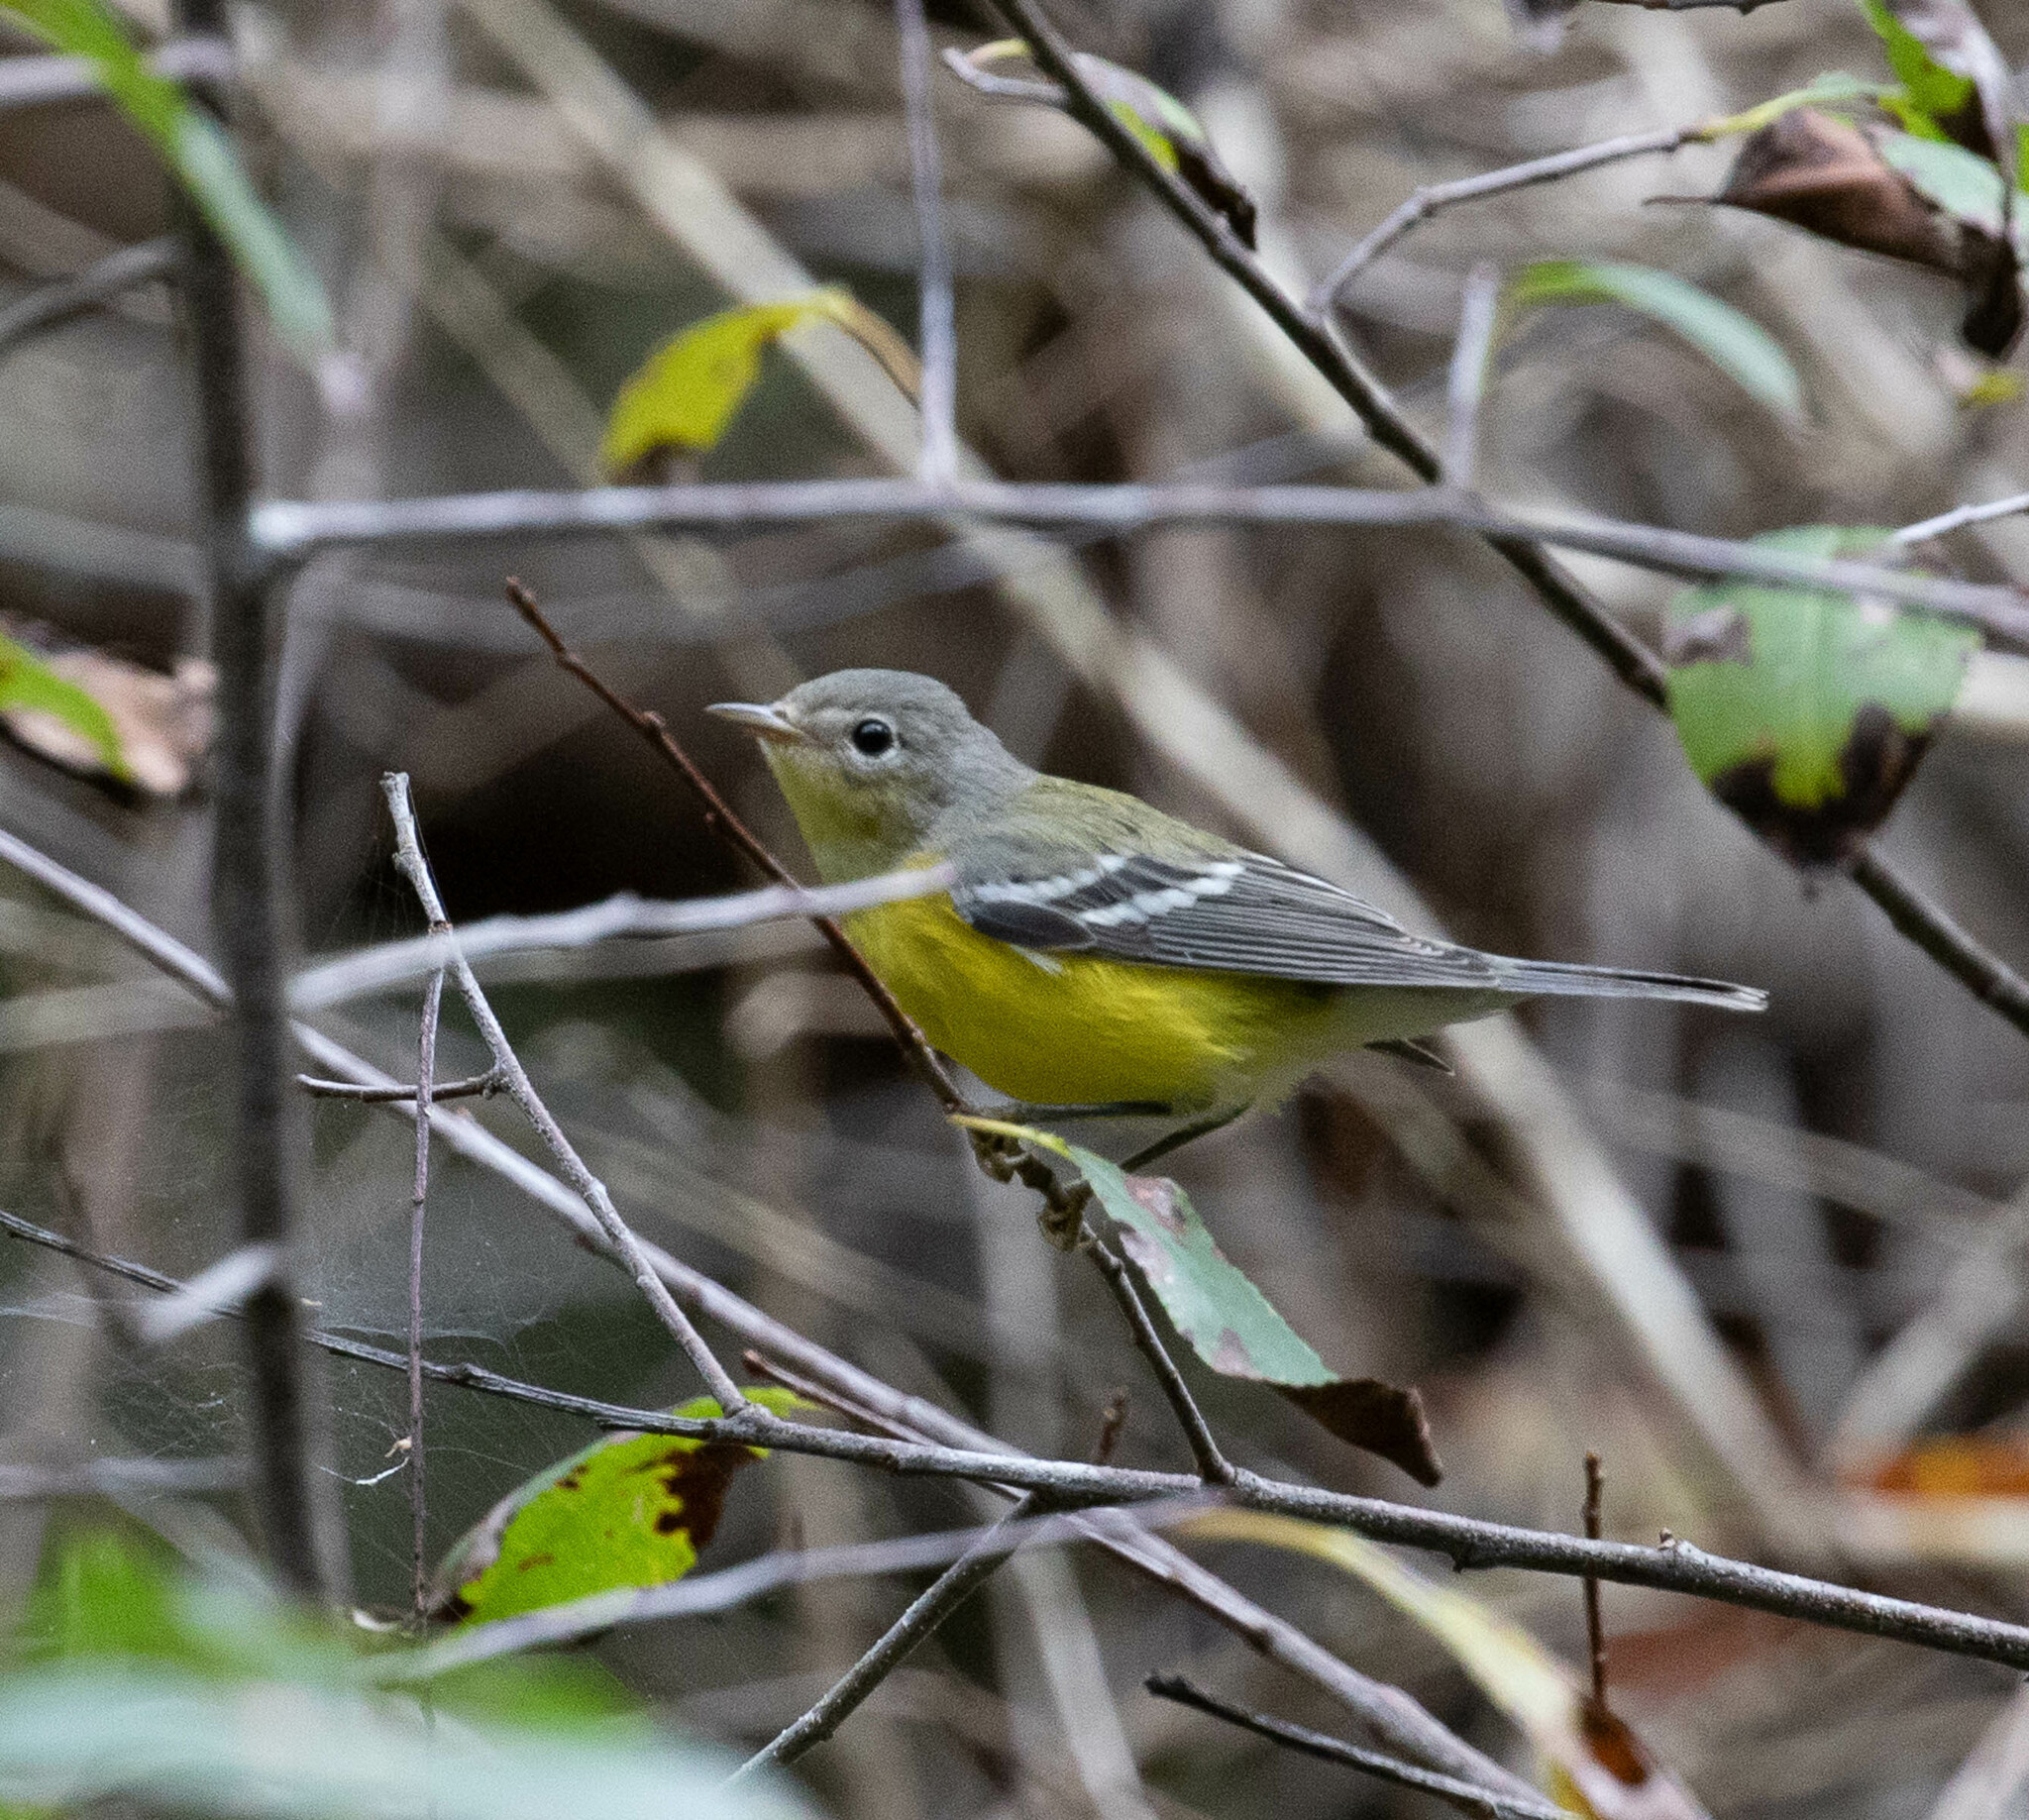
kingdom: Animalia
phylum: Chordata
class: Aves
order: Passeriformes
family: Parulidae
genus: Setophaga
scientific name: Setophaga magnolia
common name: Magnolia warbler
